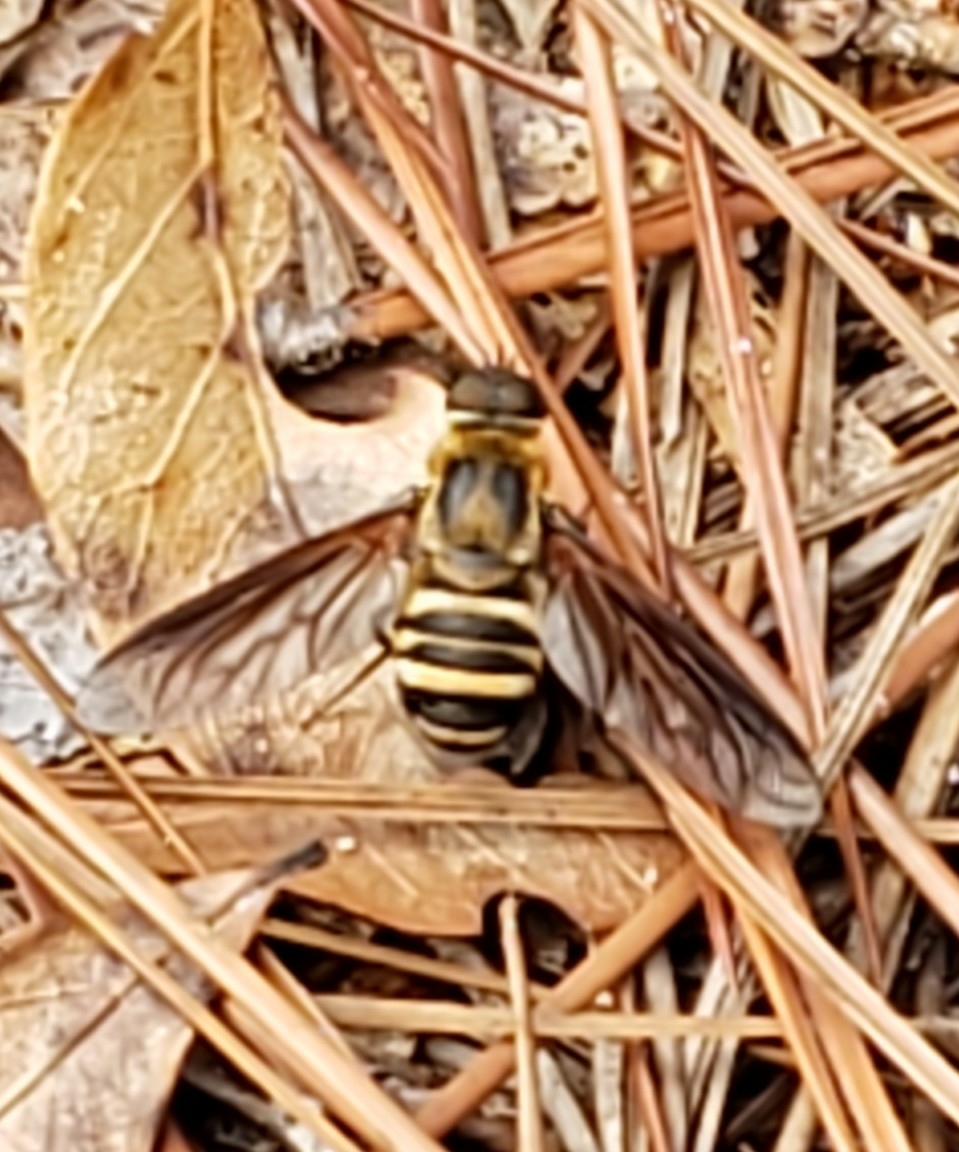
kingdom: Animalia
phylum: Arthropoda
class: Insecta
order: Diptera
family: Bombyliidae
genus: Exoprosopa
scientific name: Exoprosopa fasciata
